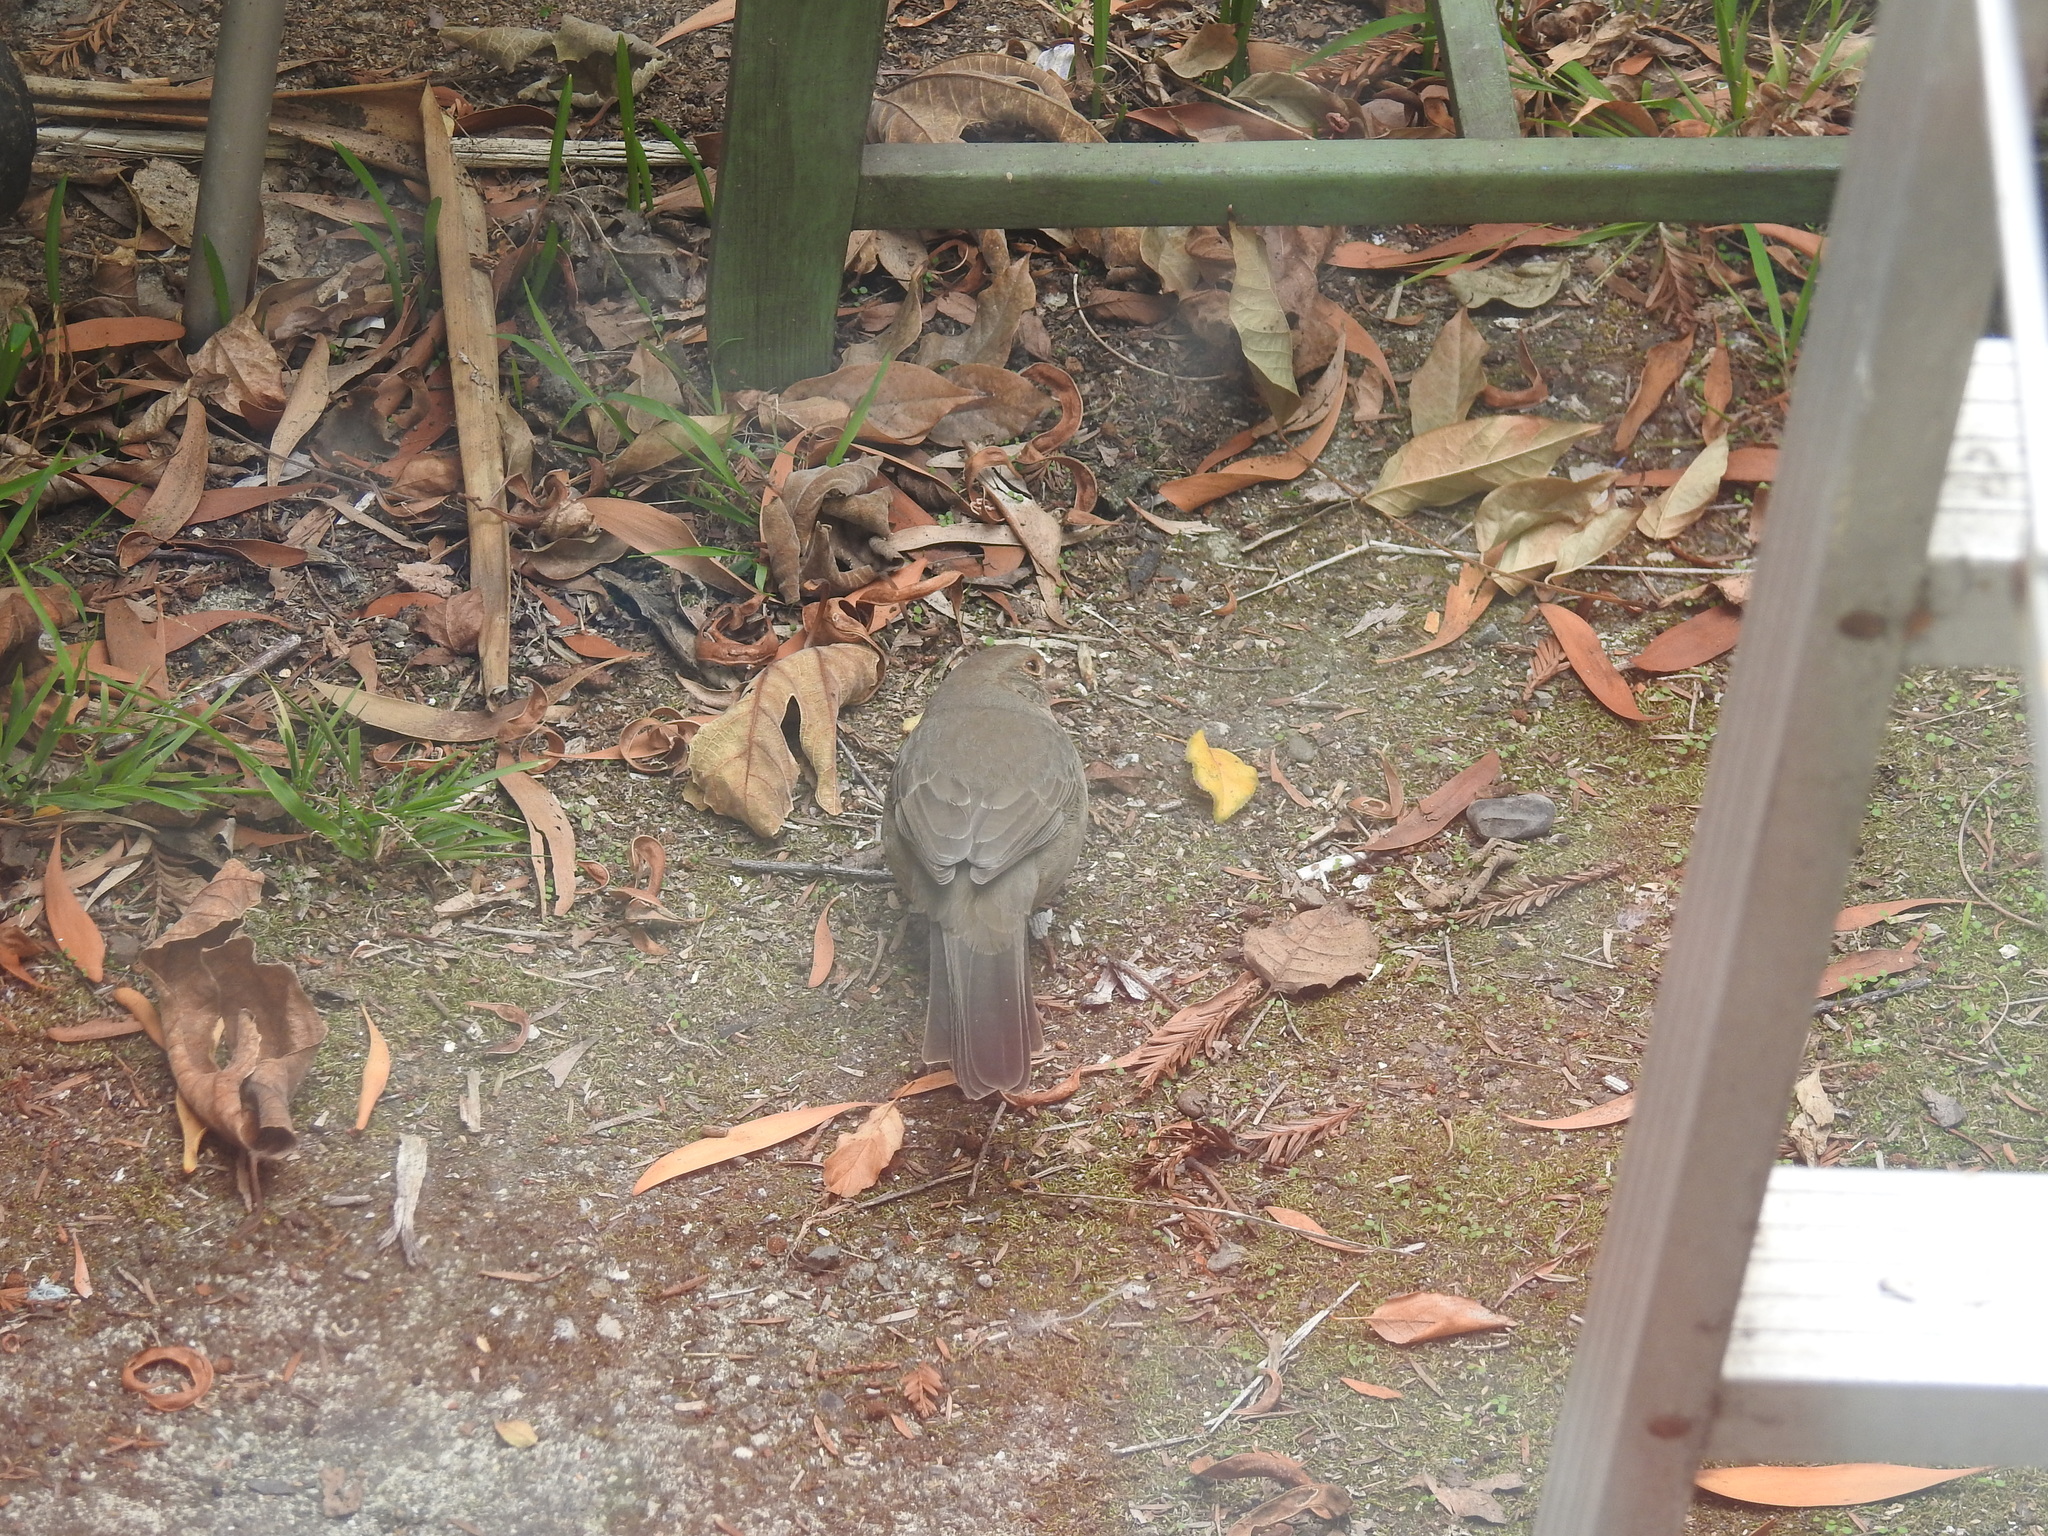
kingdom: Animalia
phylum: Chordata
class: Aves
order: Passeriformes
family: Passerellidae
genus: Melozone
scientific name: Melozone crissalis
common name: California towhee
